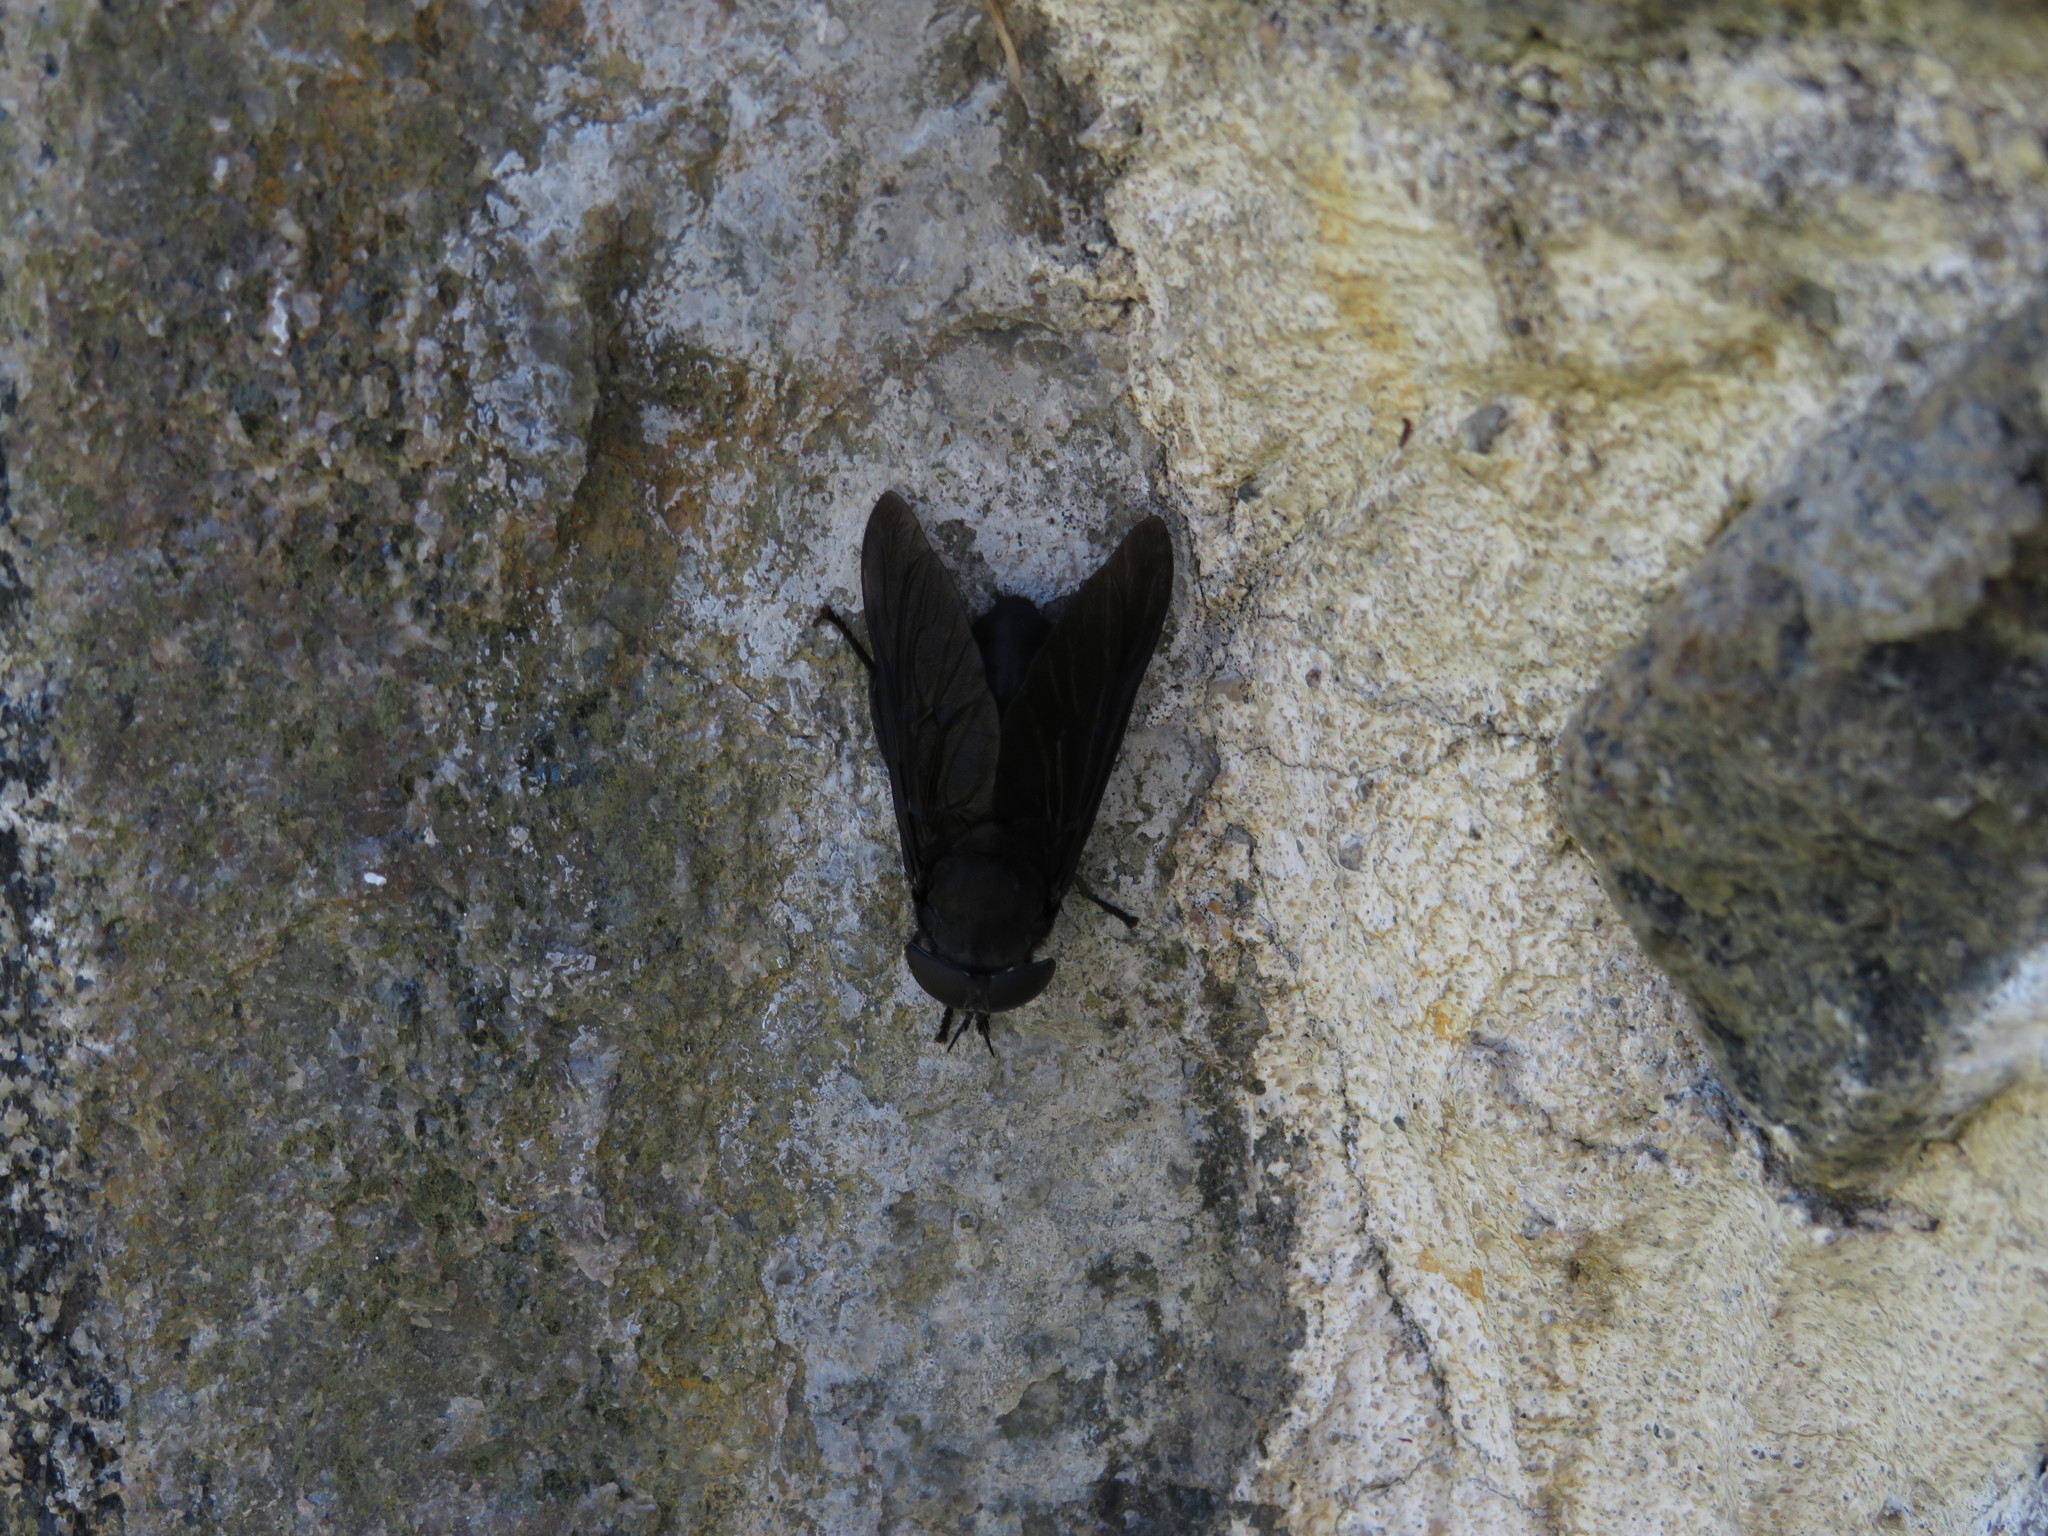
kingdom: Animalia
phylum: Arthropoda
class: Insecta
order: Diptera
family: Tabanidae
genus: Tabanus
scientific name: Tabanus atratus
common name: Black horse fly
